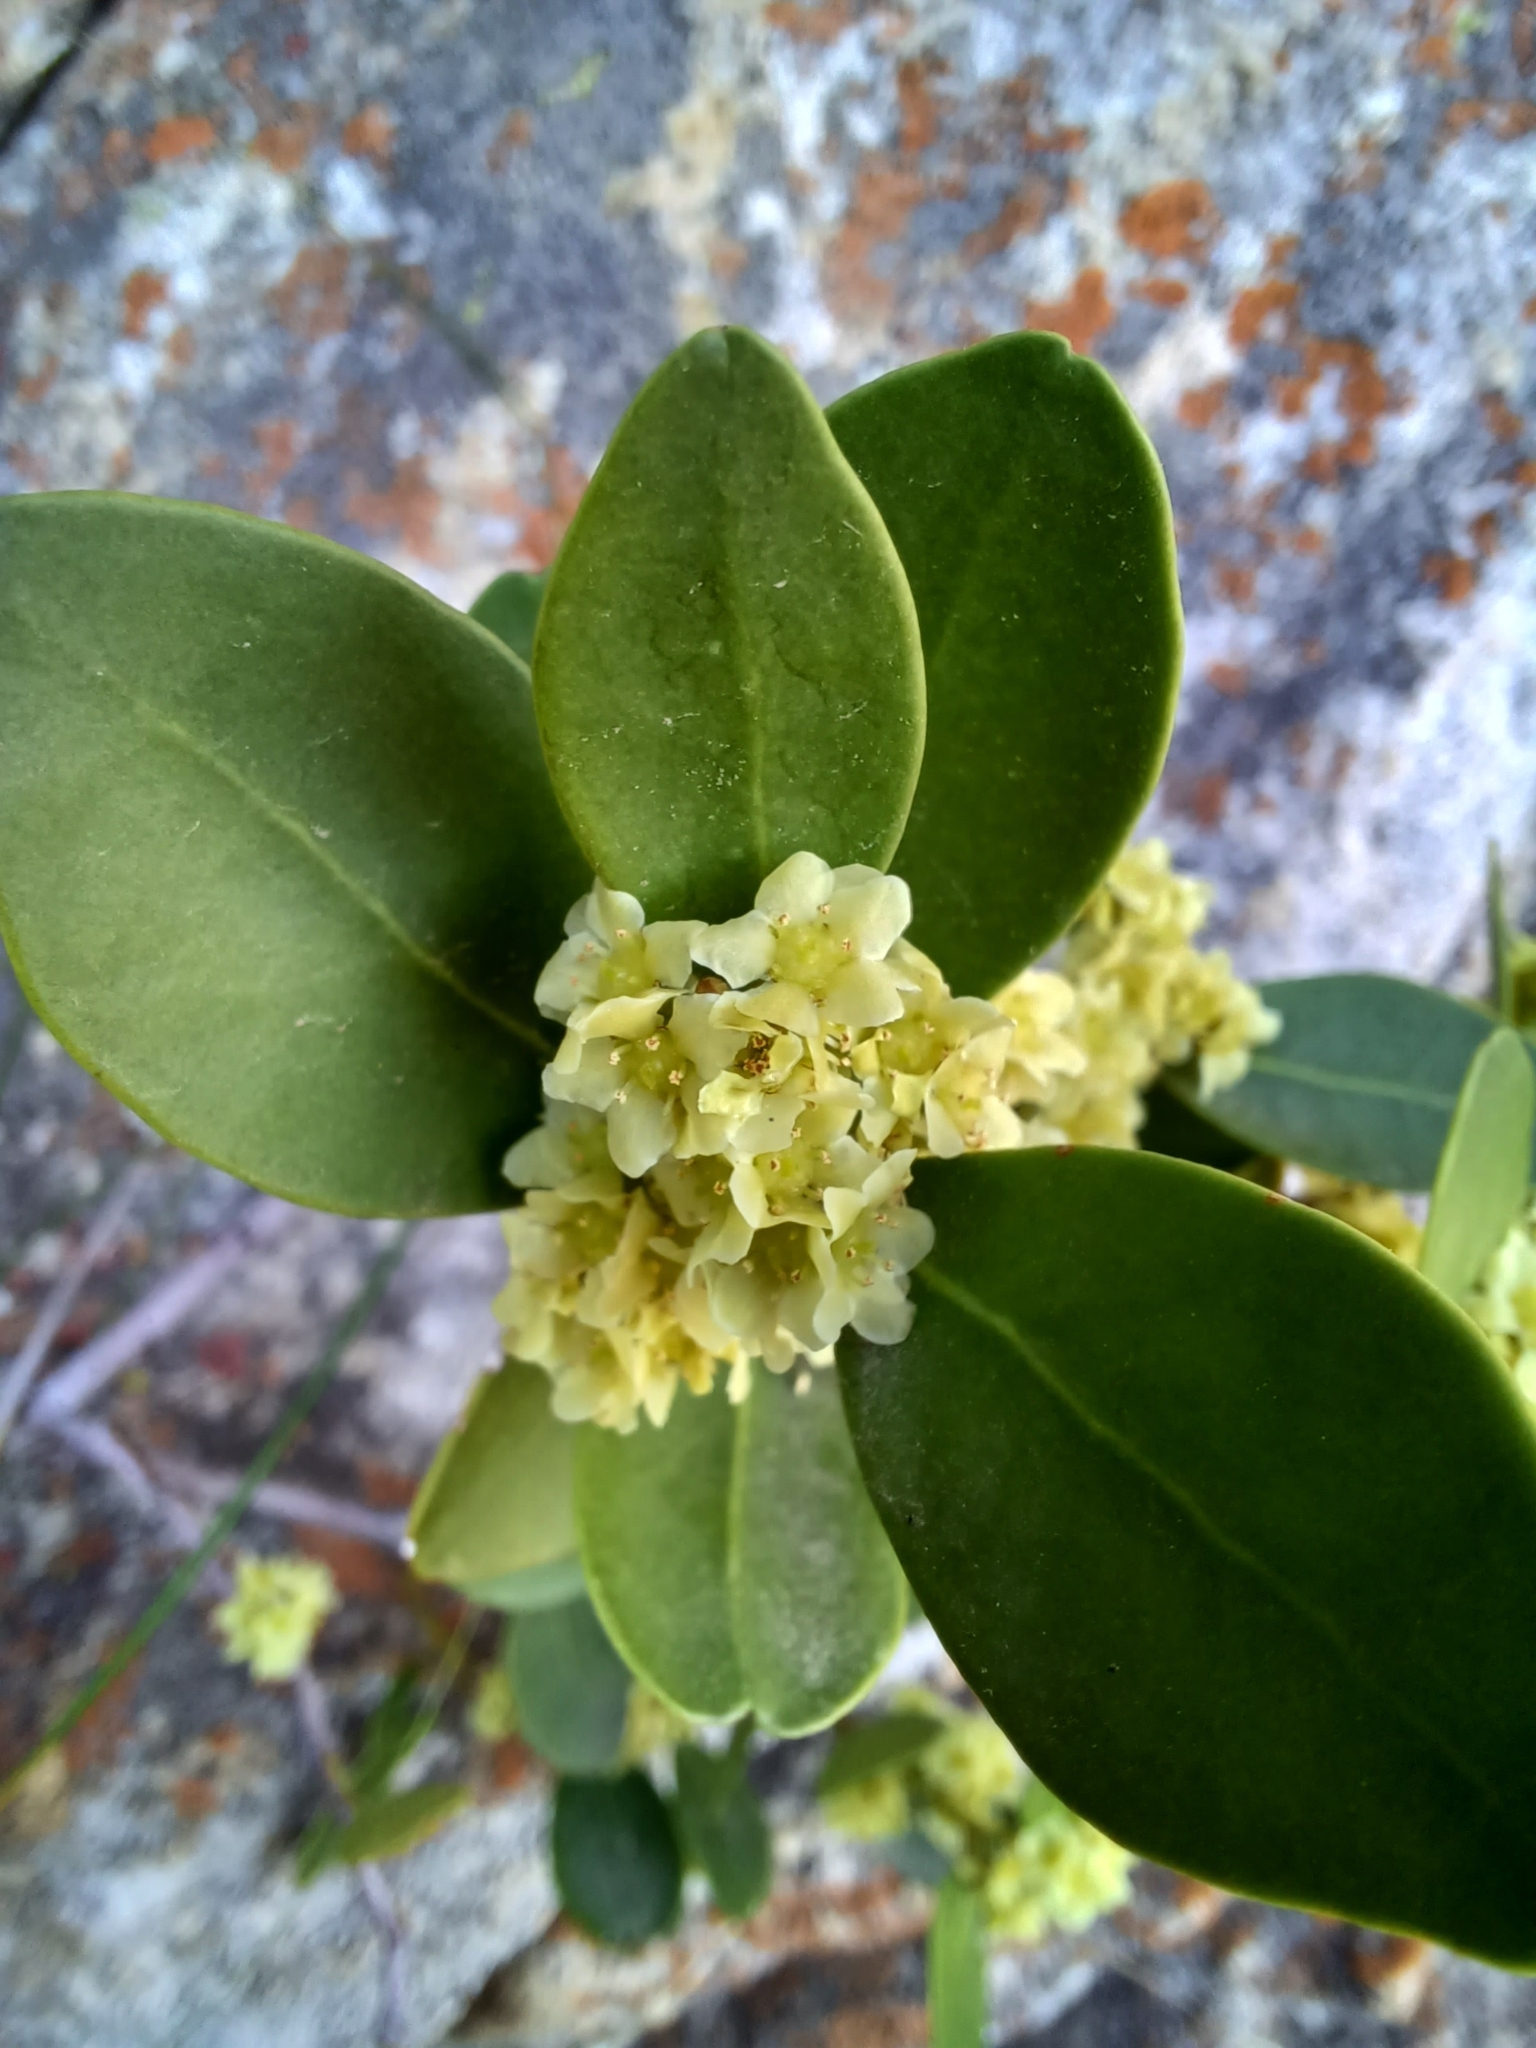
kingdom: Plantae
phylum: Tracheophyta
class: Magnoliopsida
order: Celastrales
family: Celastraceae
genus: Gymnosporia
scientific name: Gymnosporia laurina
